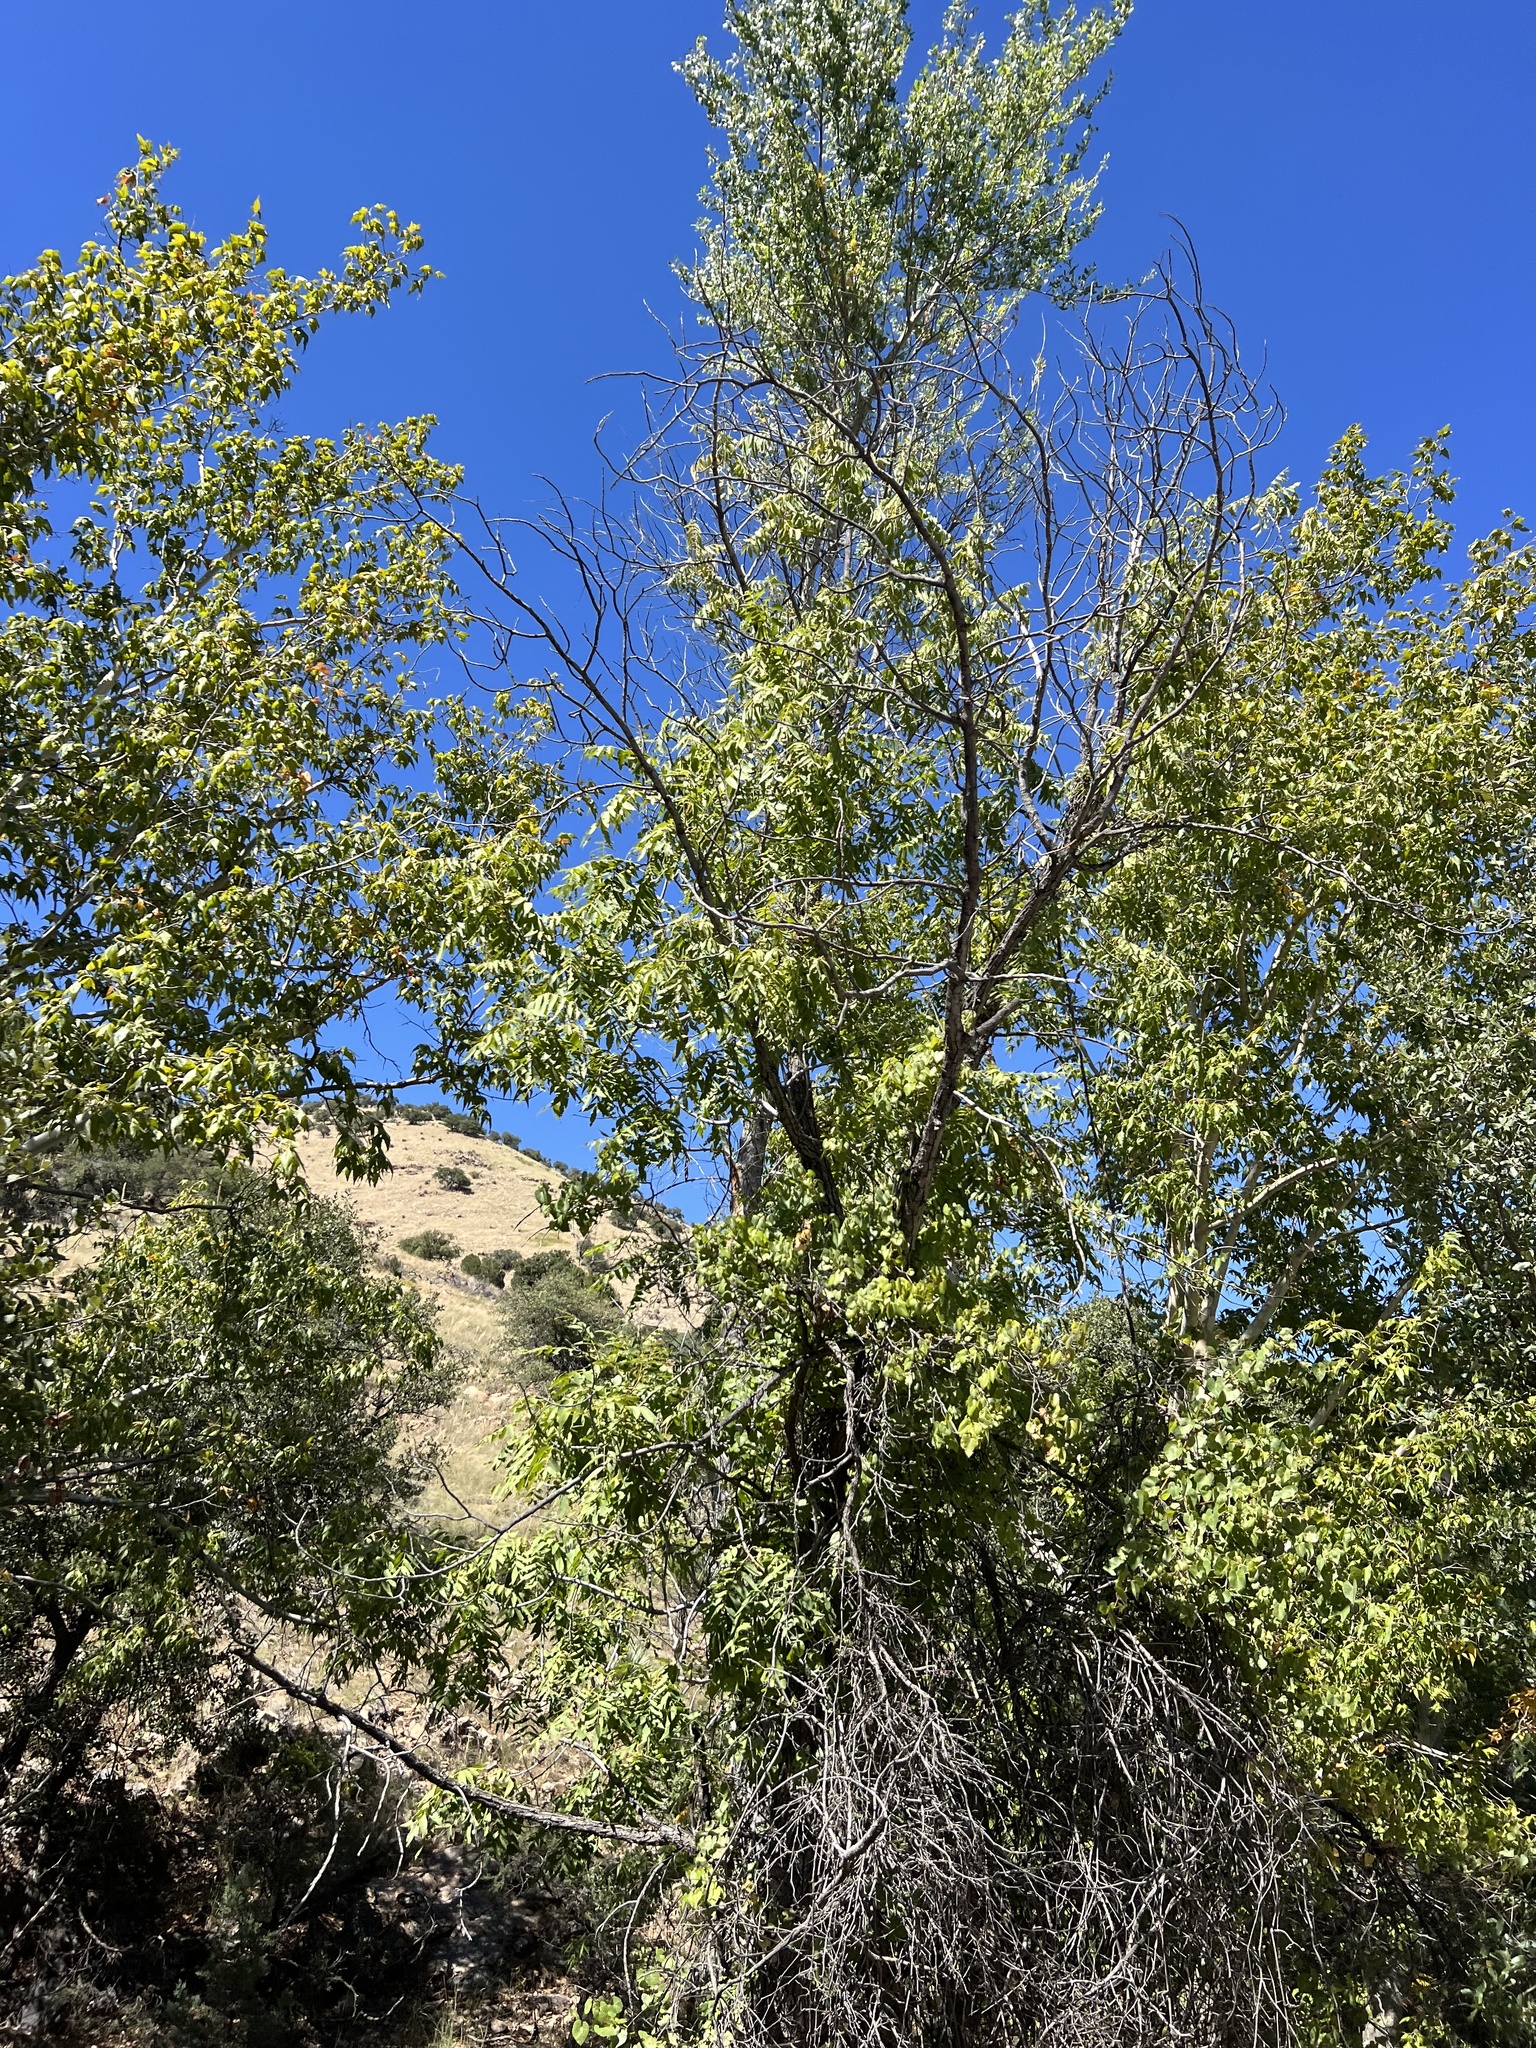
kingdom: Plantae
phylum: Tracheophyta
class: Magnoliopsida
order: Fagales
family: Juglandaceae
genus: Juglans
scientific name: Juglans major
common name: Arizona walnut
